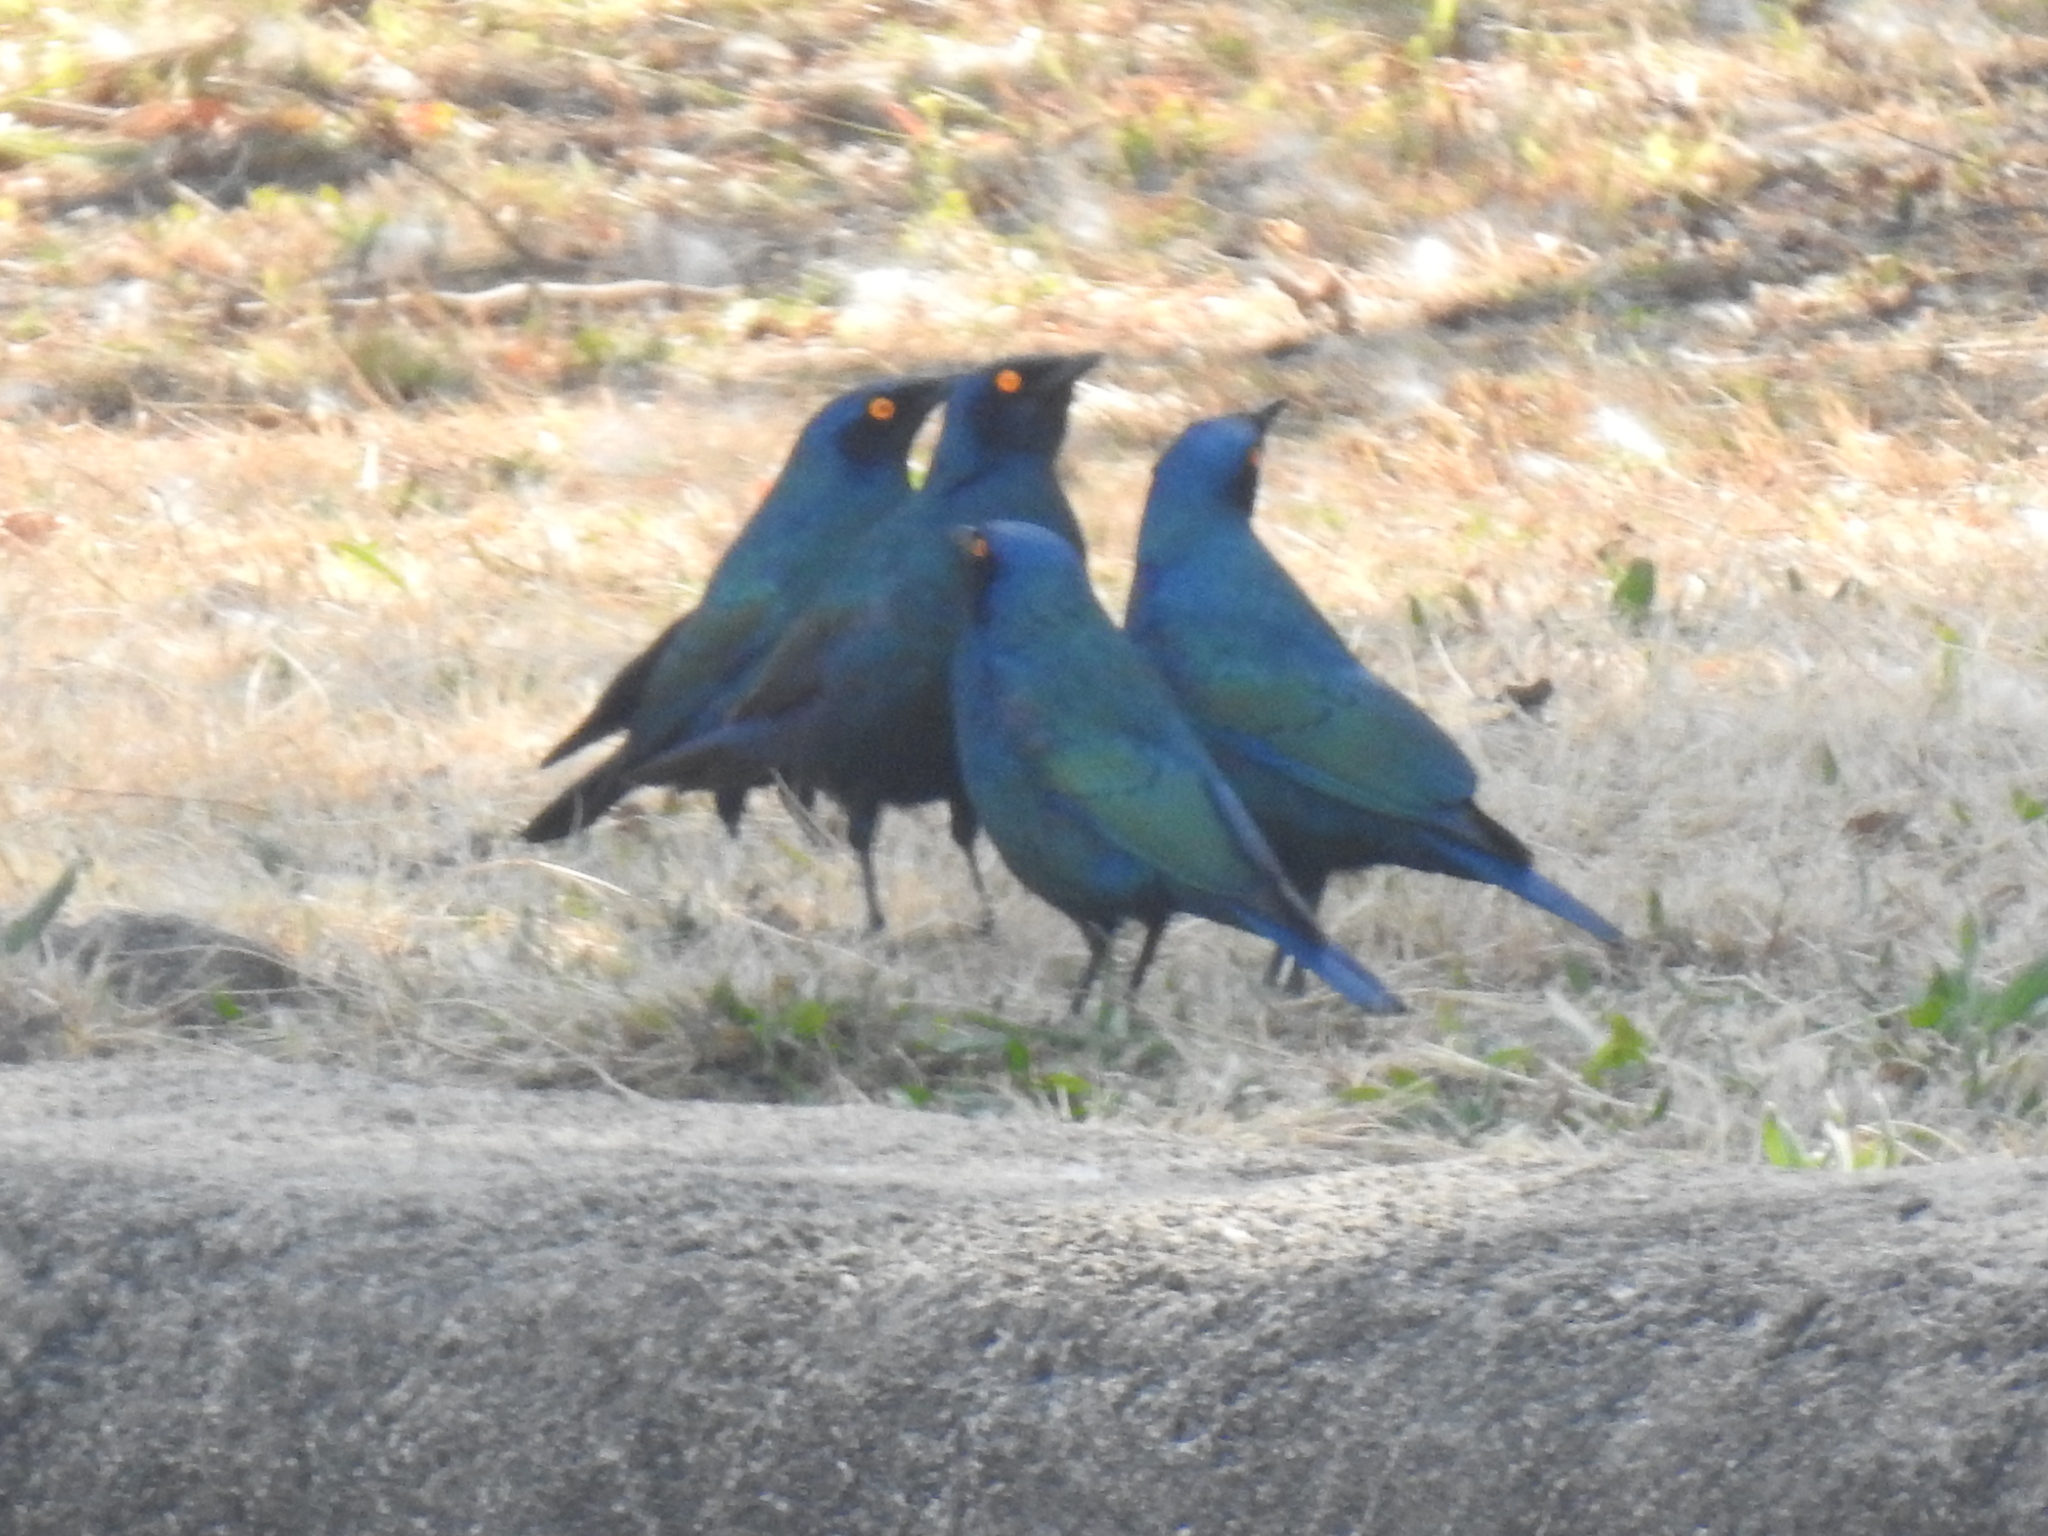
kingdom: Animalia
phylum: Chordata
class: Aves
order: Passeriformes
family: Sturnidae
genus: Lamprotornis
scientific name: Lamprotornis nitens
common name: Cape starling
